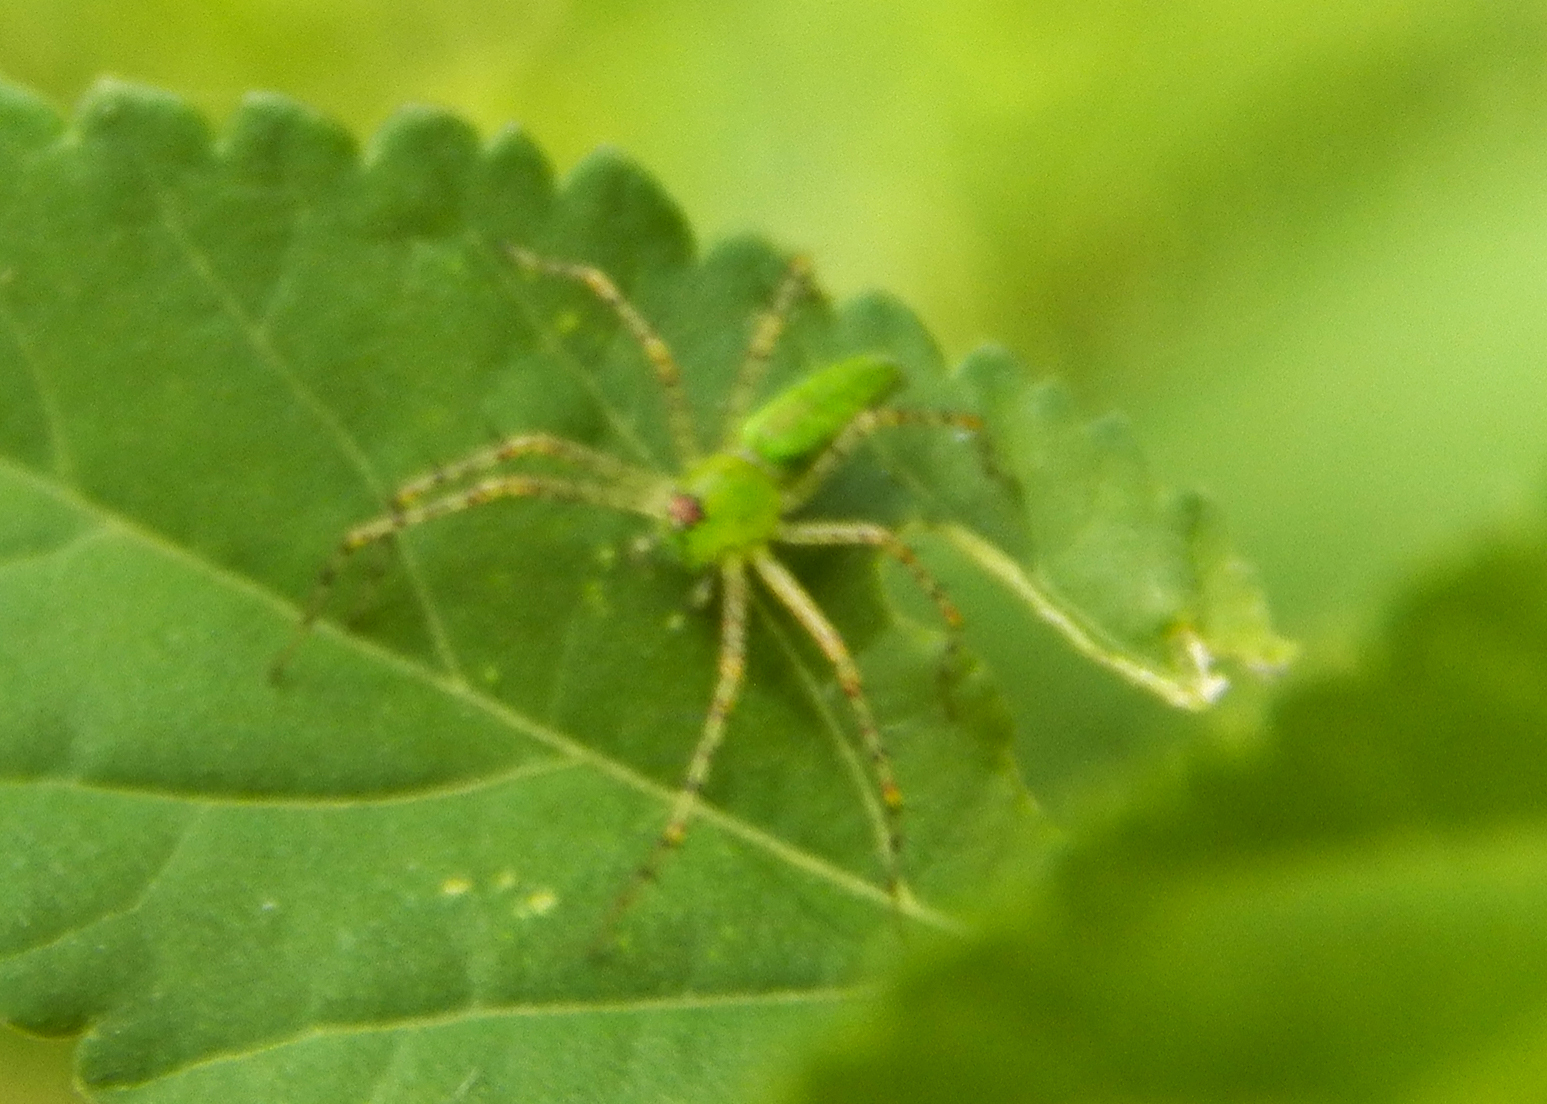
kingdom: Animalia
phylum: Arthropoda
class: Arachnida
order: Araneae
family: Oxyopidae
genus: Peucetia
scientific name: Peucetia viridans
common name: Lynx spiders
